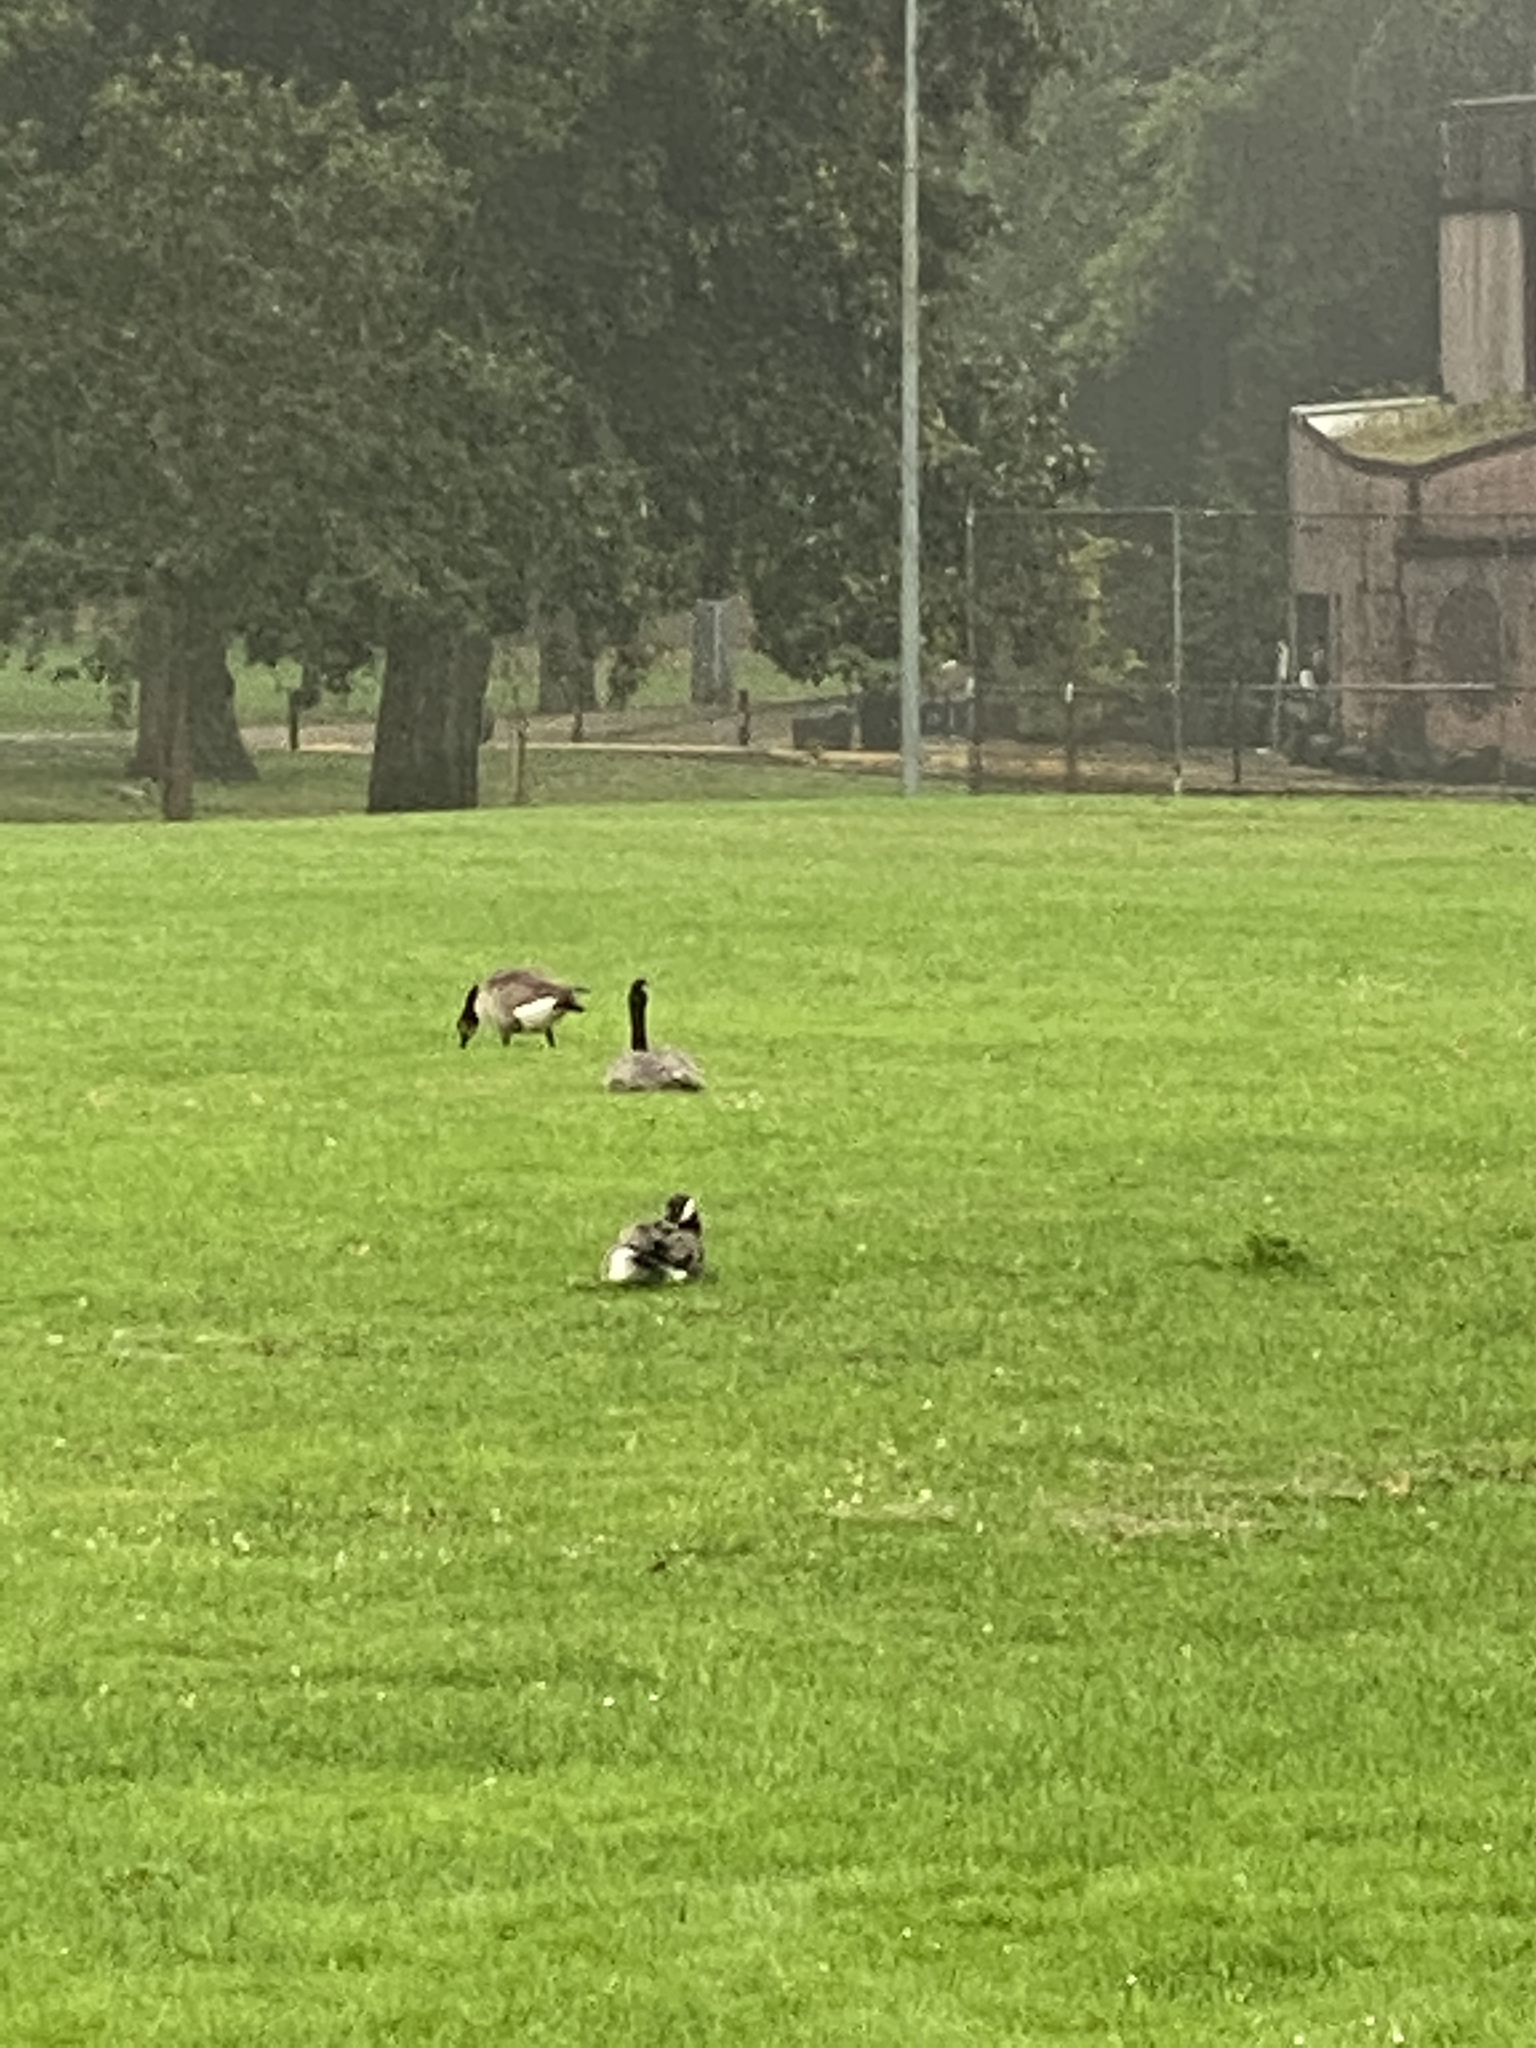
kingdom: Animalia
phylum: Chordata
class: Aves
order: Anseriformes
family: Anatidae
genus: Branta
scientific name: Branta canadensis
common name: Canada goose
